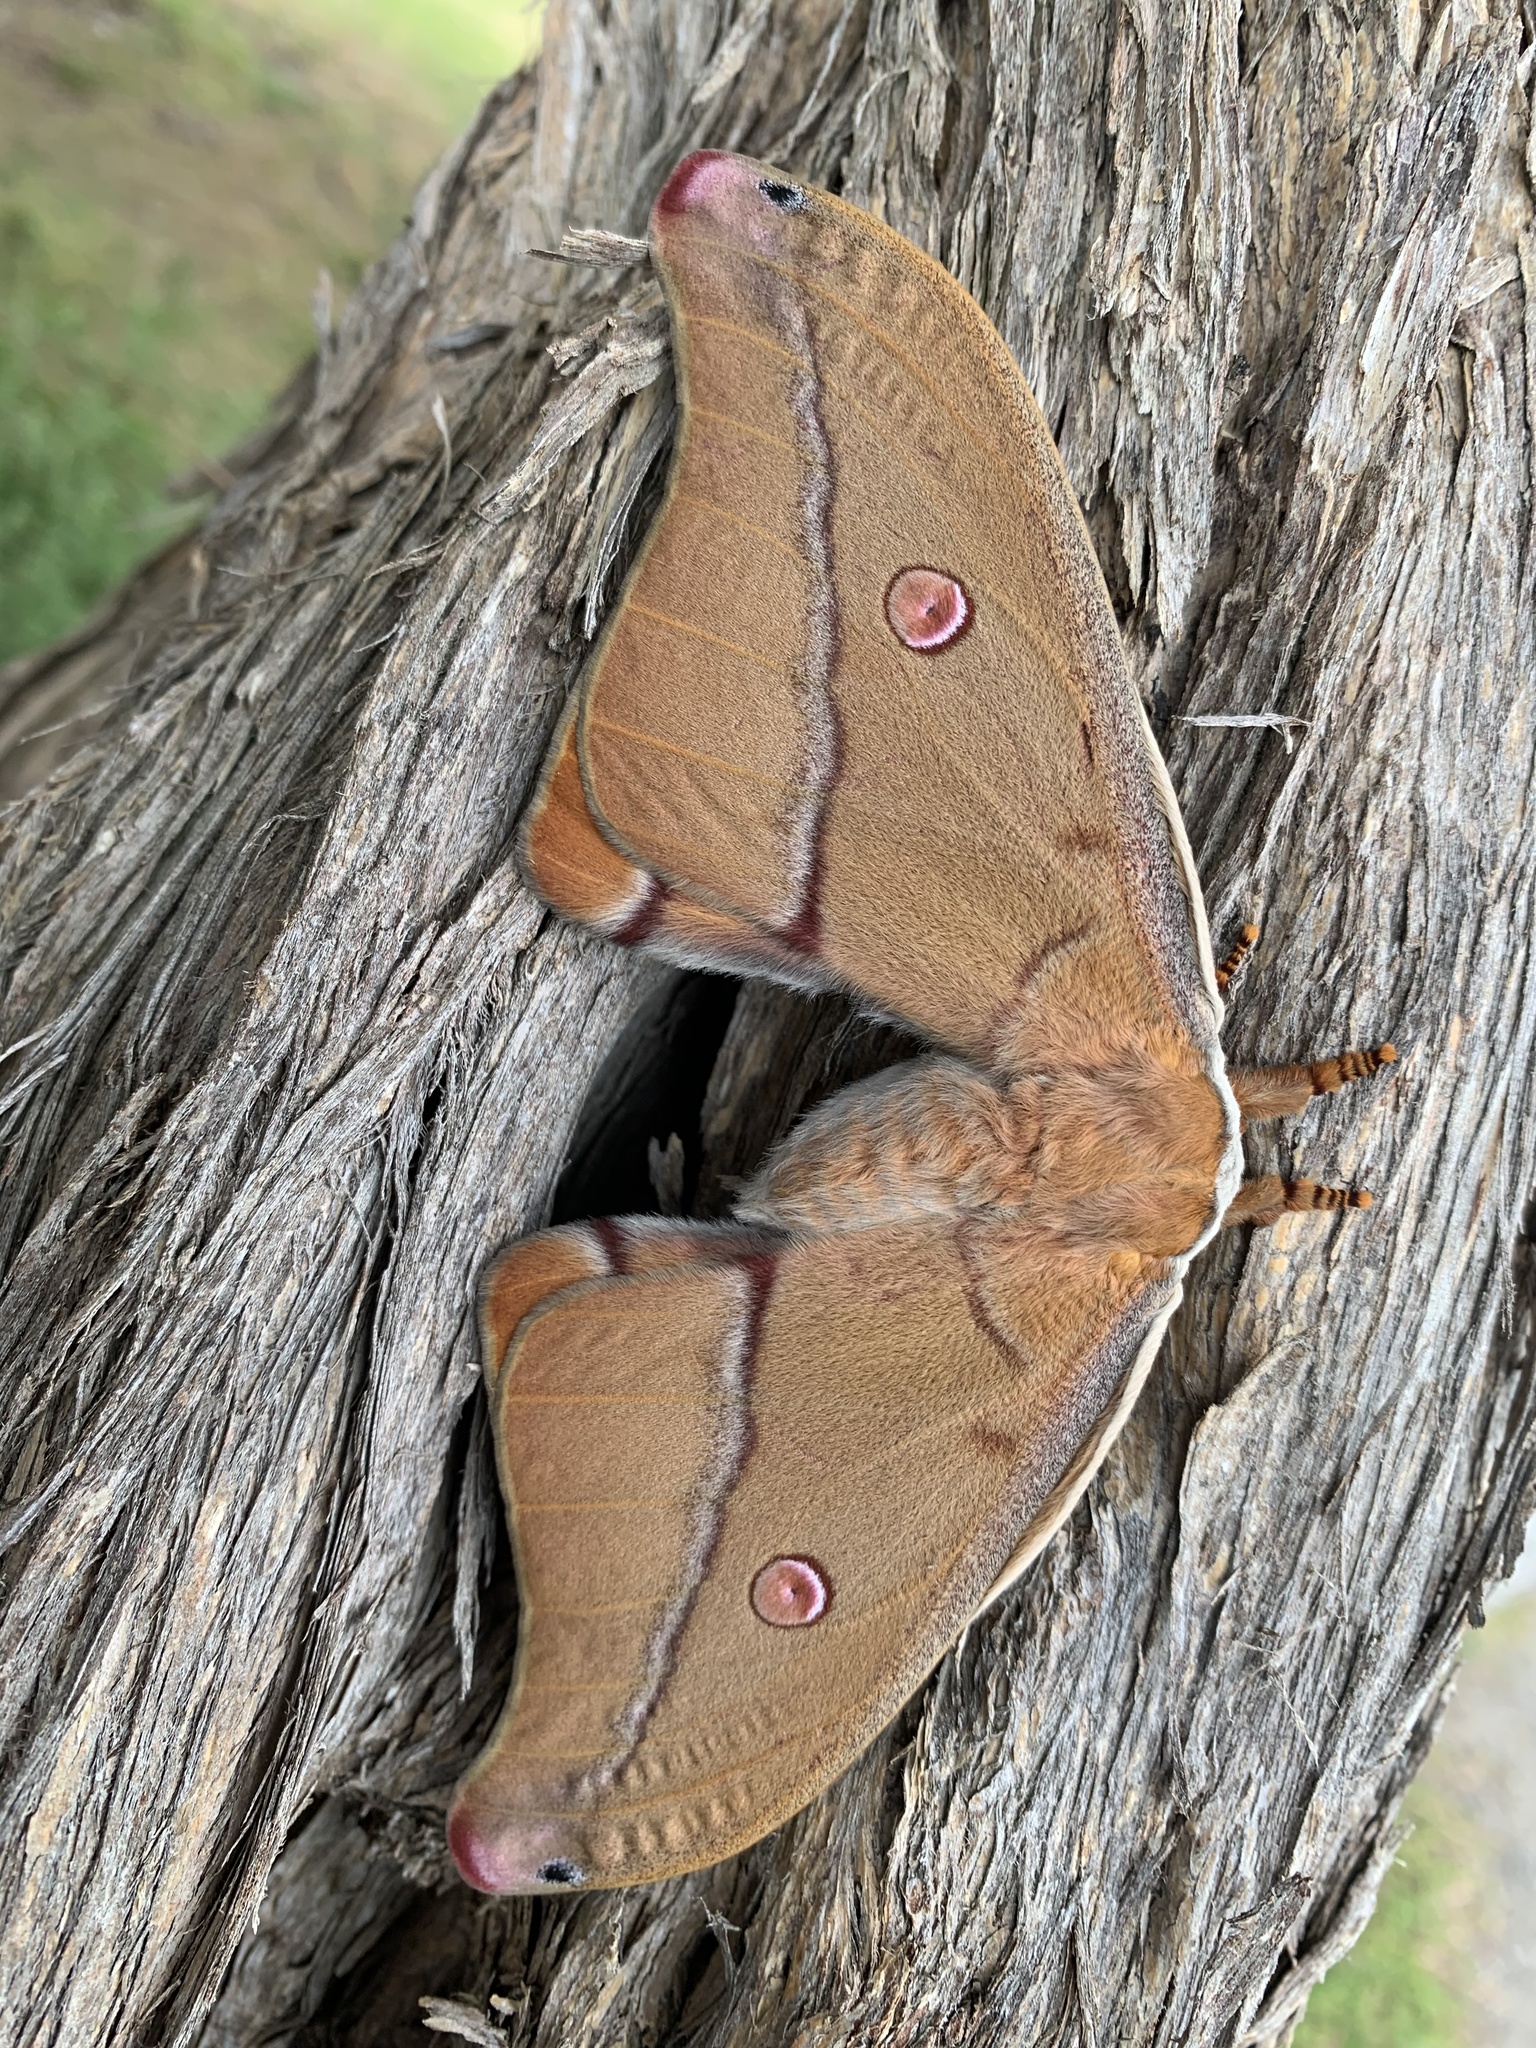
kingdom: Animalia
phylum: Arthropoda
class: Insecta
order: Lepidoptera
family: Saturniidae
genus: Opodiphthera
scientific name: Opodiphthera
